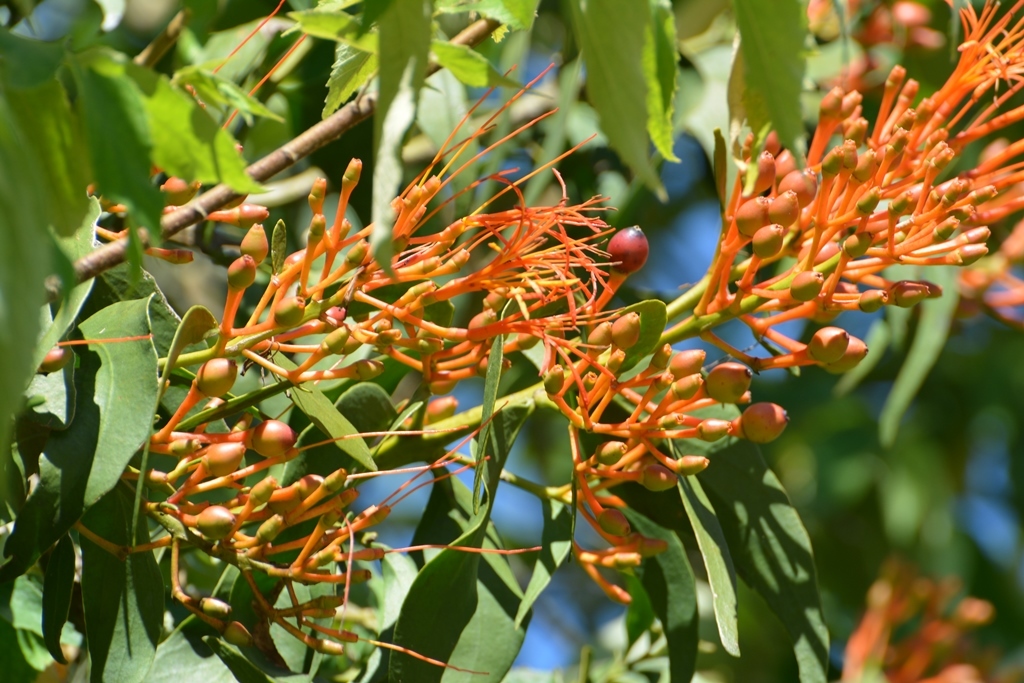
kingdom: Plantae
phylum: Tracheophyta
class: Magnoliopsida
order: Santalales
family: Loranthaceae
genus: Psittacanthus
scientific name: Psittacanthus calyculatus
